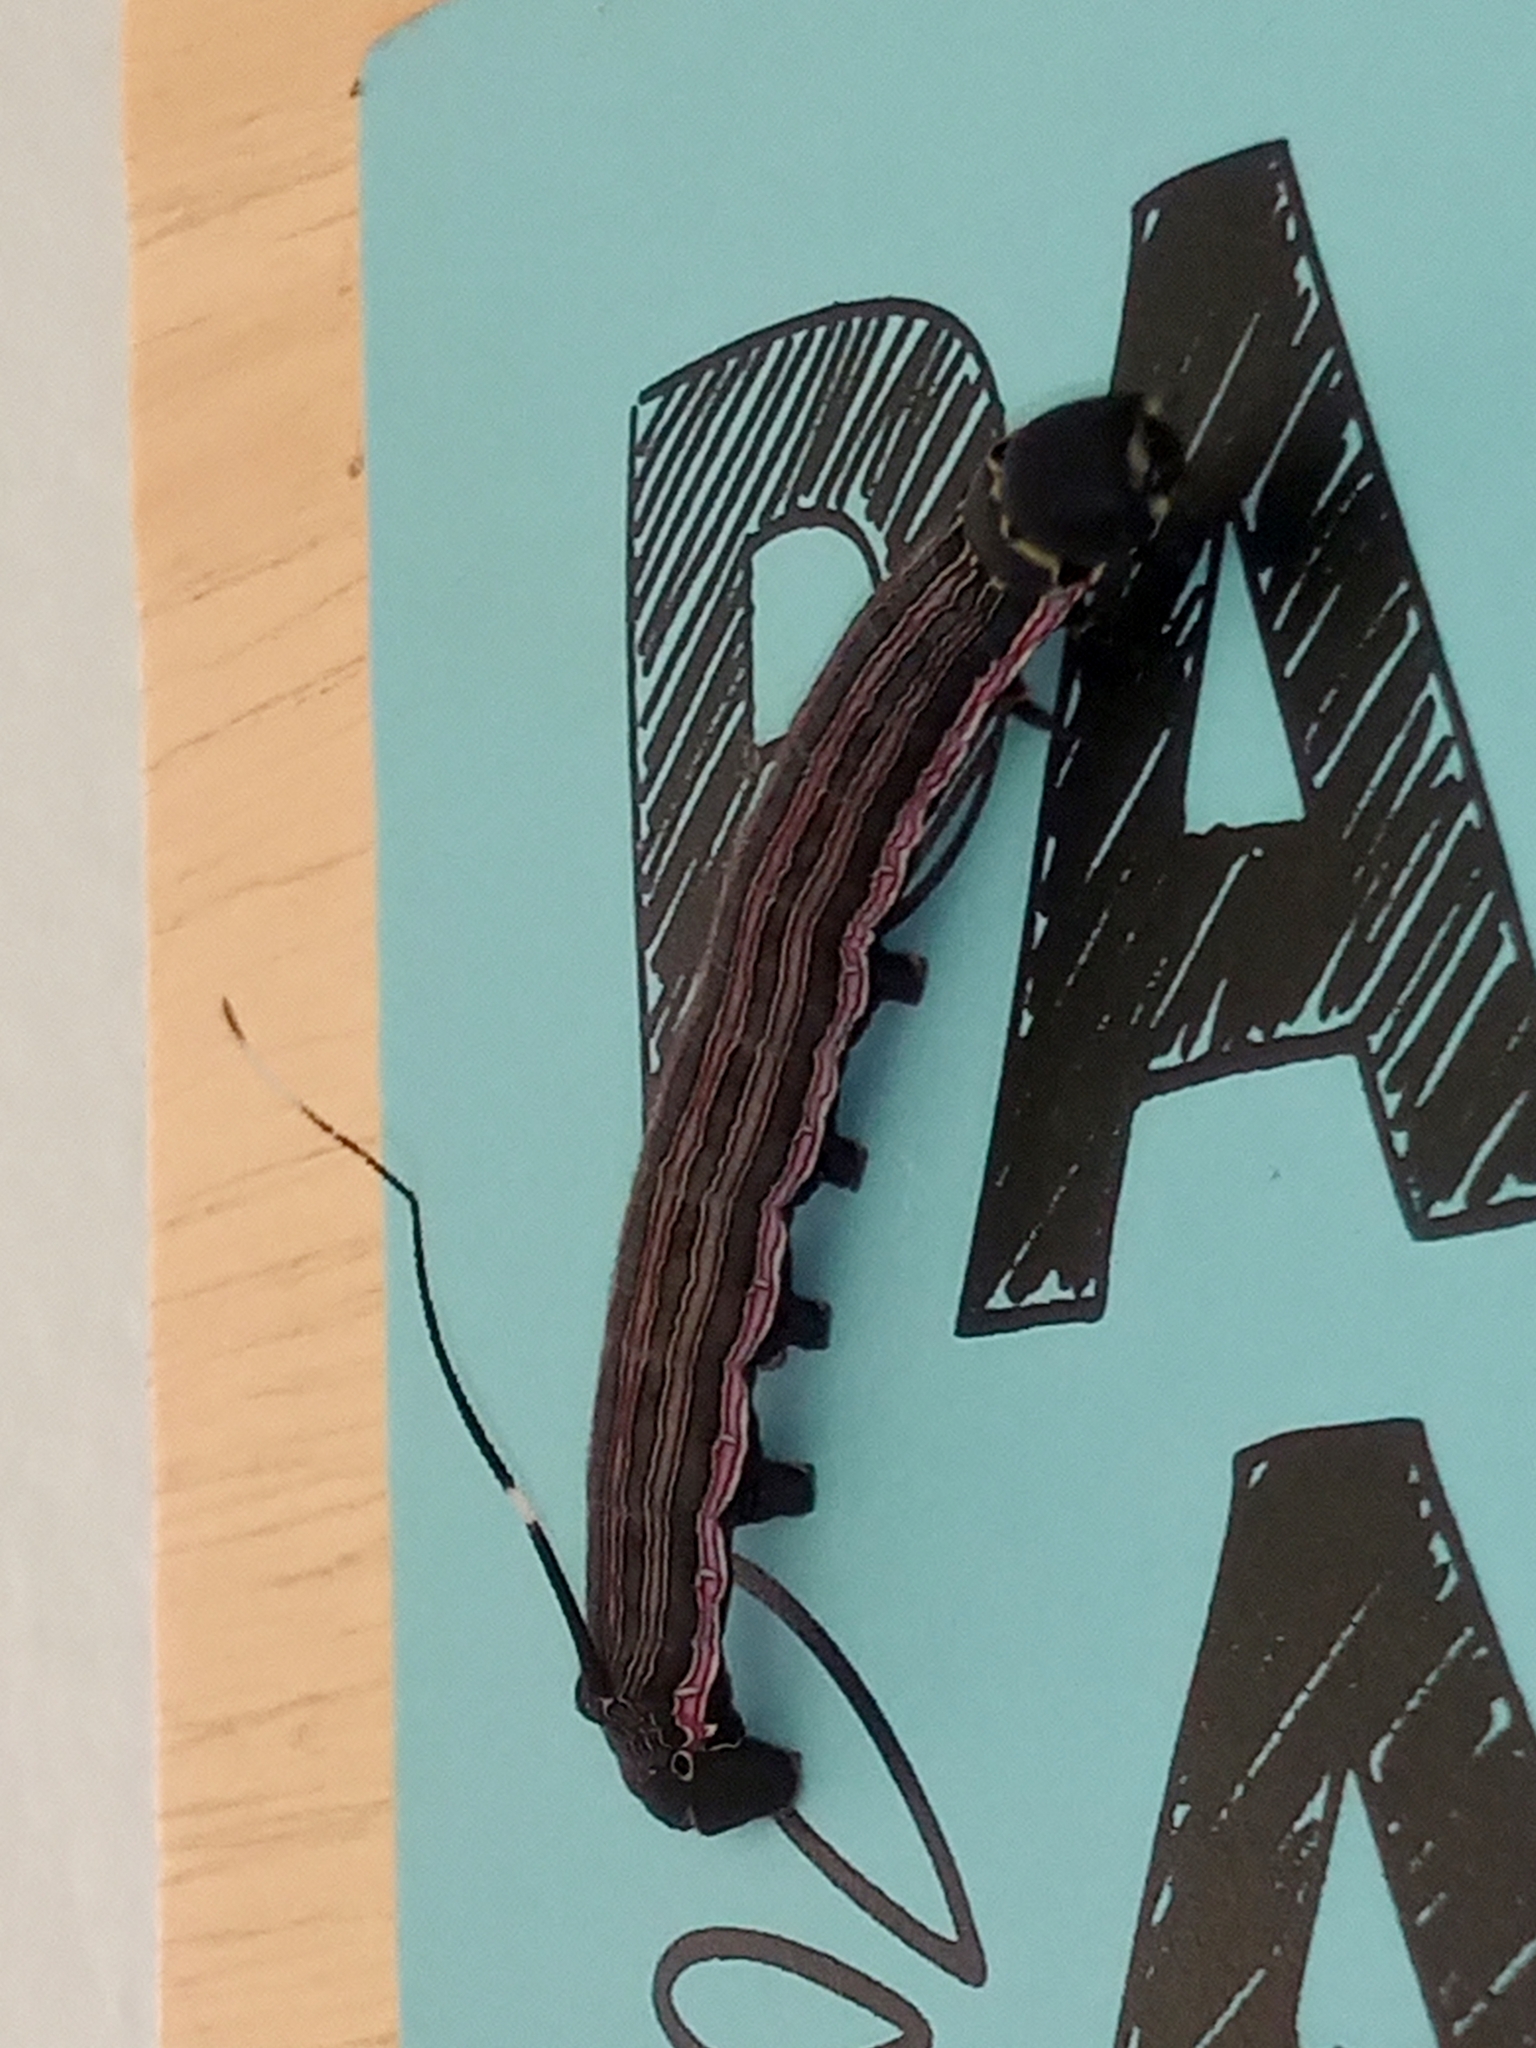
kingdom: Animalia
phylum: Arthropoda
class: Insecta
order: Lepidoptera
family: Sphingidae
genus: Isognathus
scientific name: Isognathus allamandae
